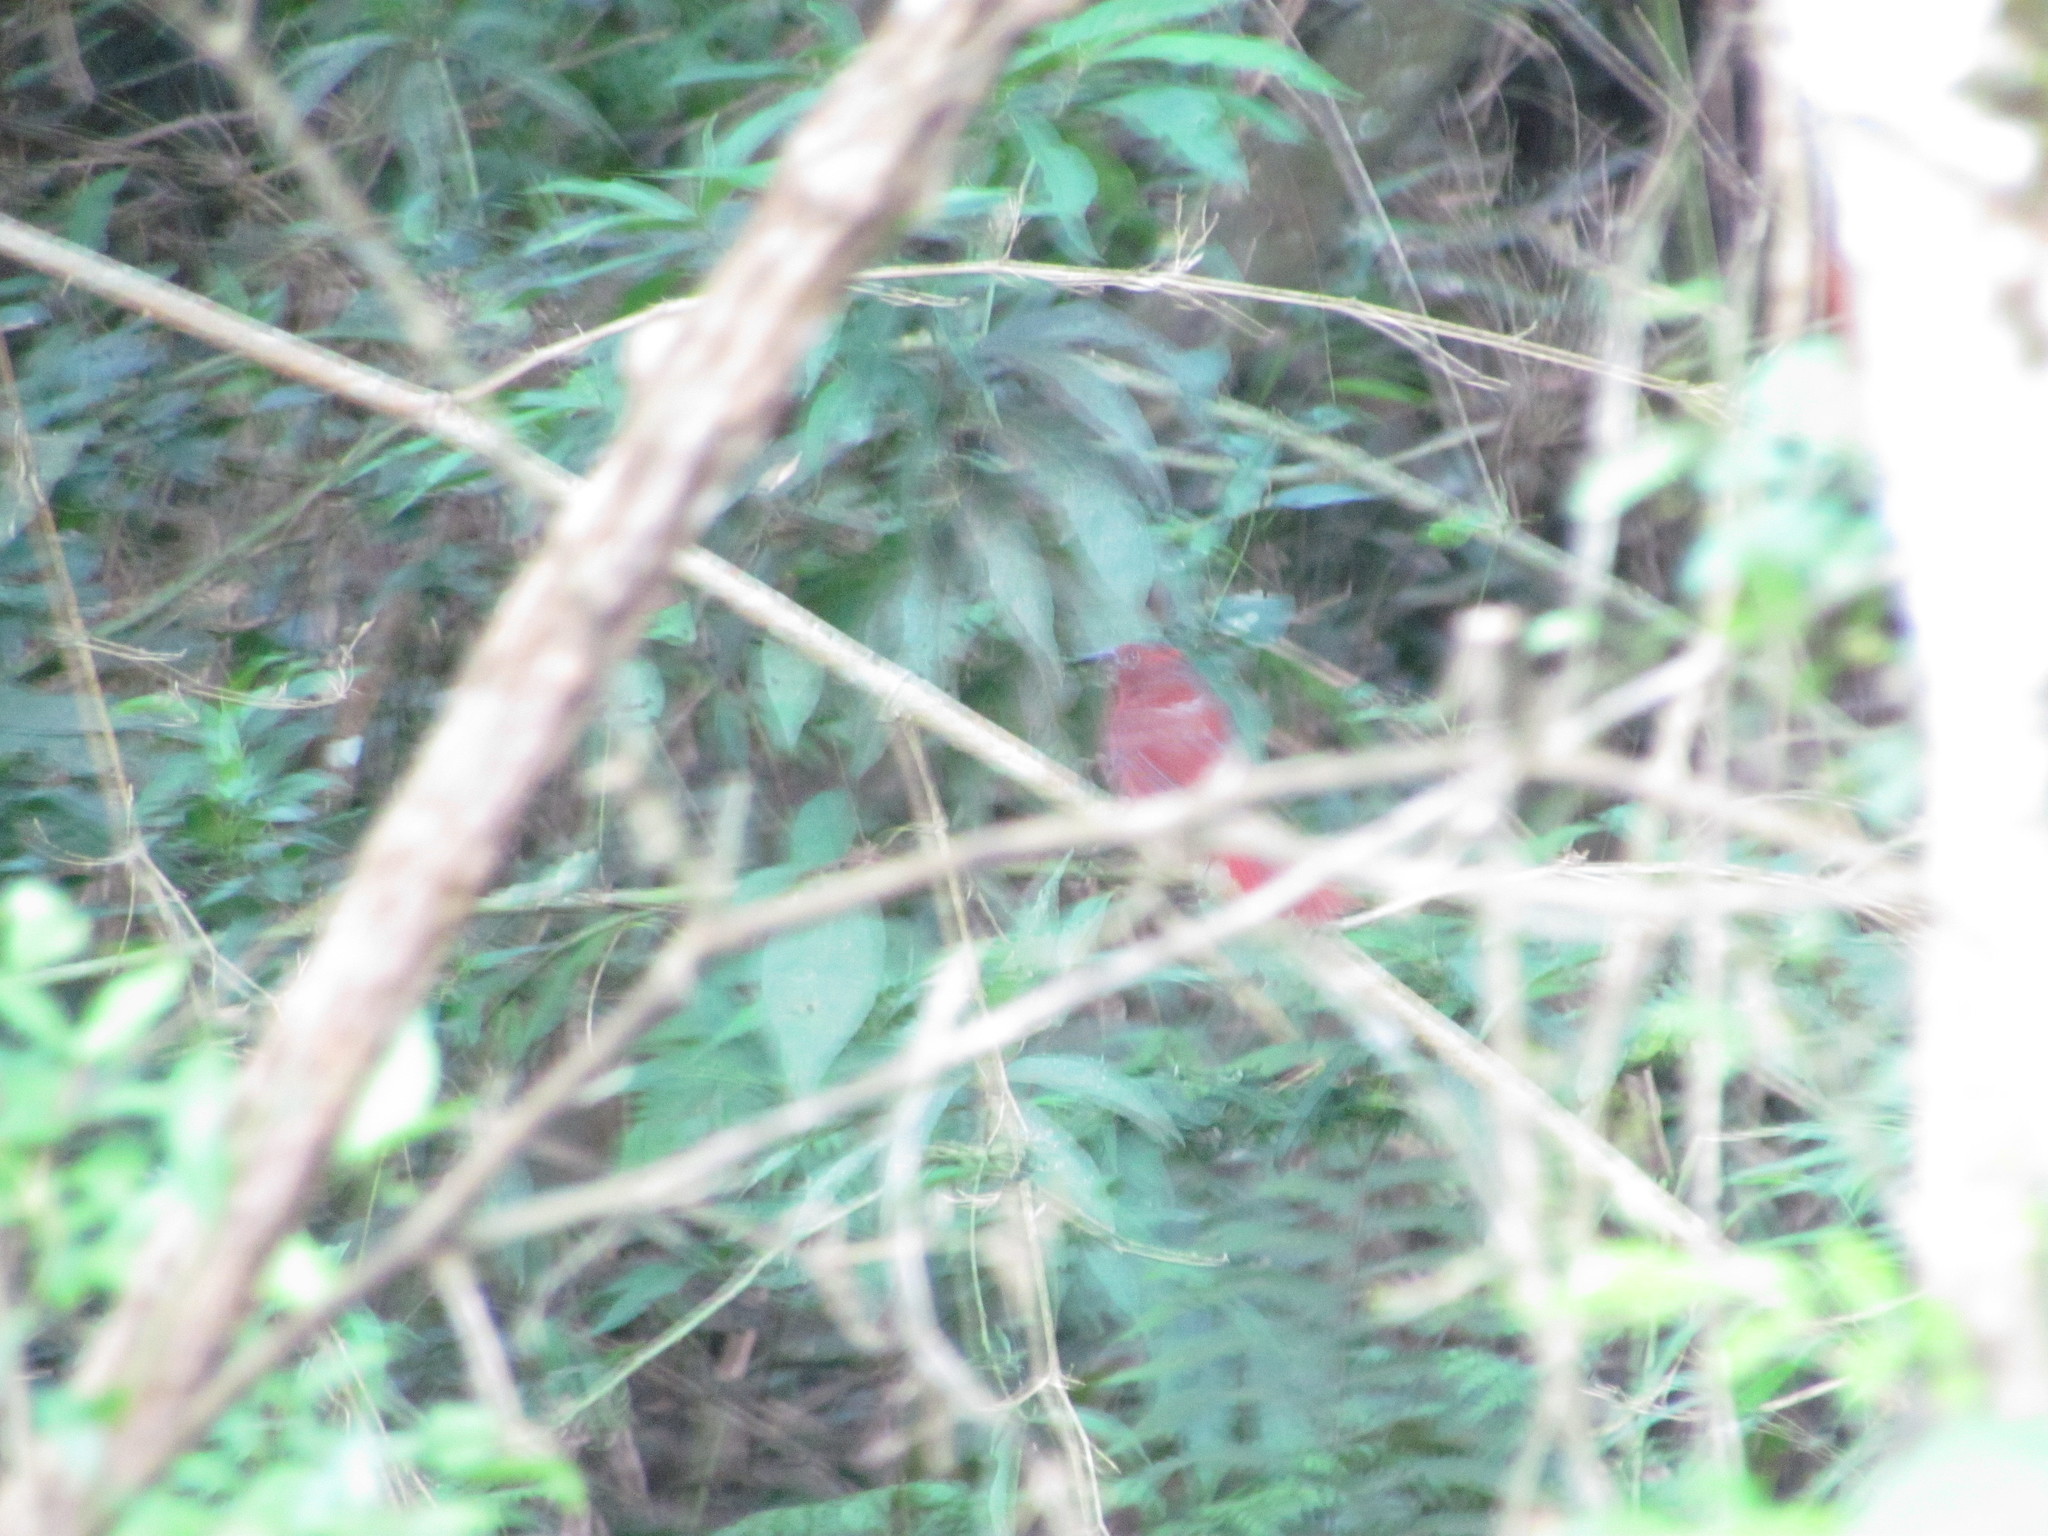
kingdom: Animalia
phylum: Chordata
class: Aves
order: Passeriformes
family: Cardinalidae
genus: Habia
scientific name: Habia rubica
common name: Red-crowned ant-tanager
